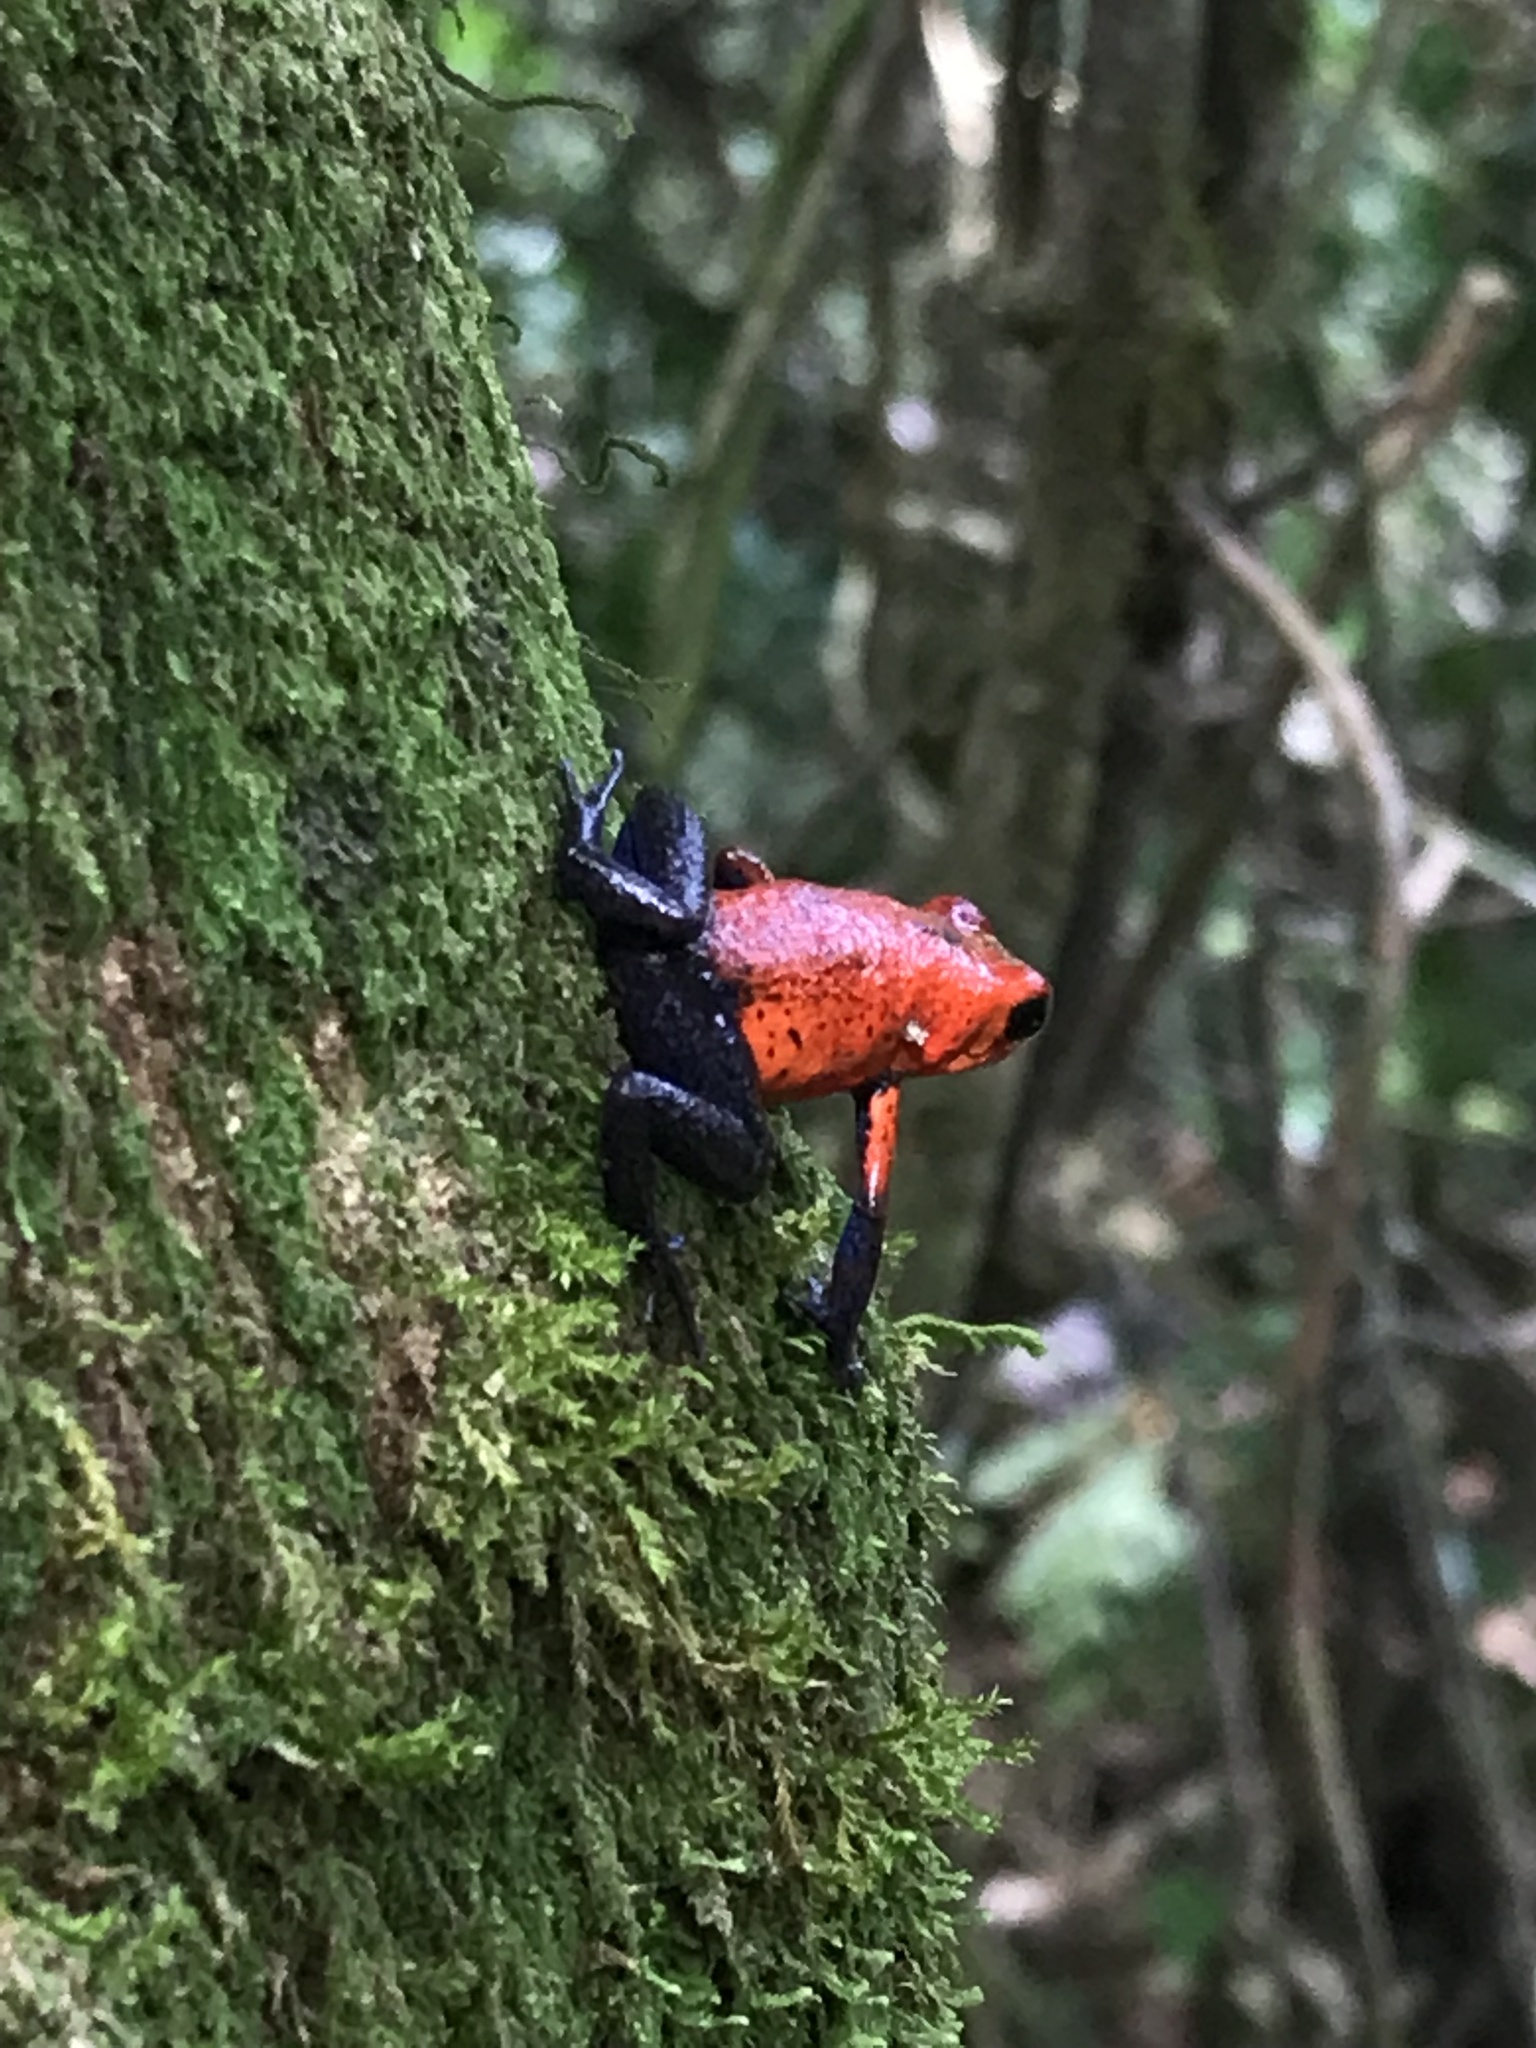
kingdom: Animalia
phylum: Chordata
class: Amphibia
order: Anura
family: Dendrobatidae
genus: Oophaga
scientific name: Oophaga pumilio
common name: Flaming poison frog
